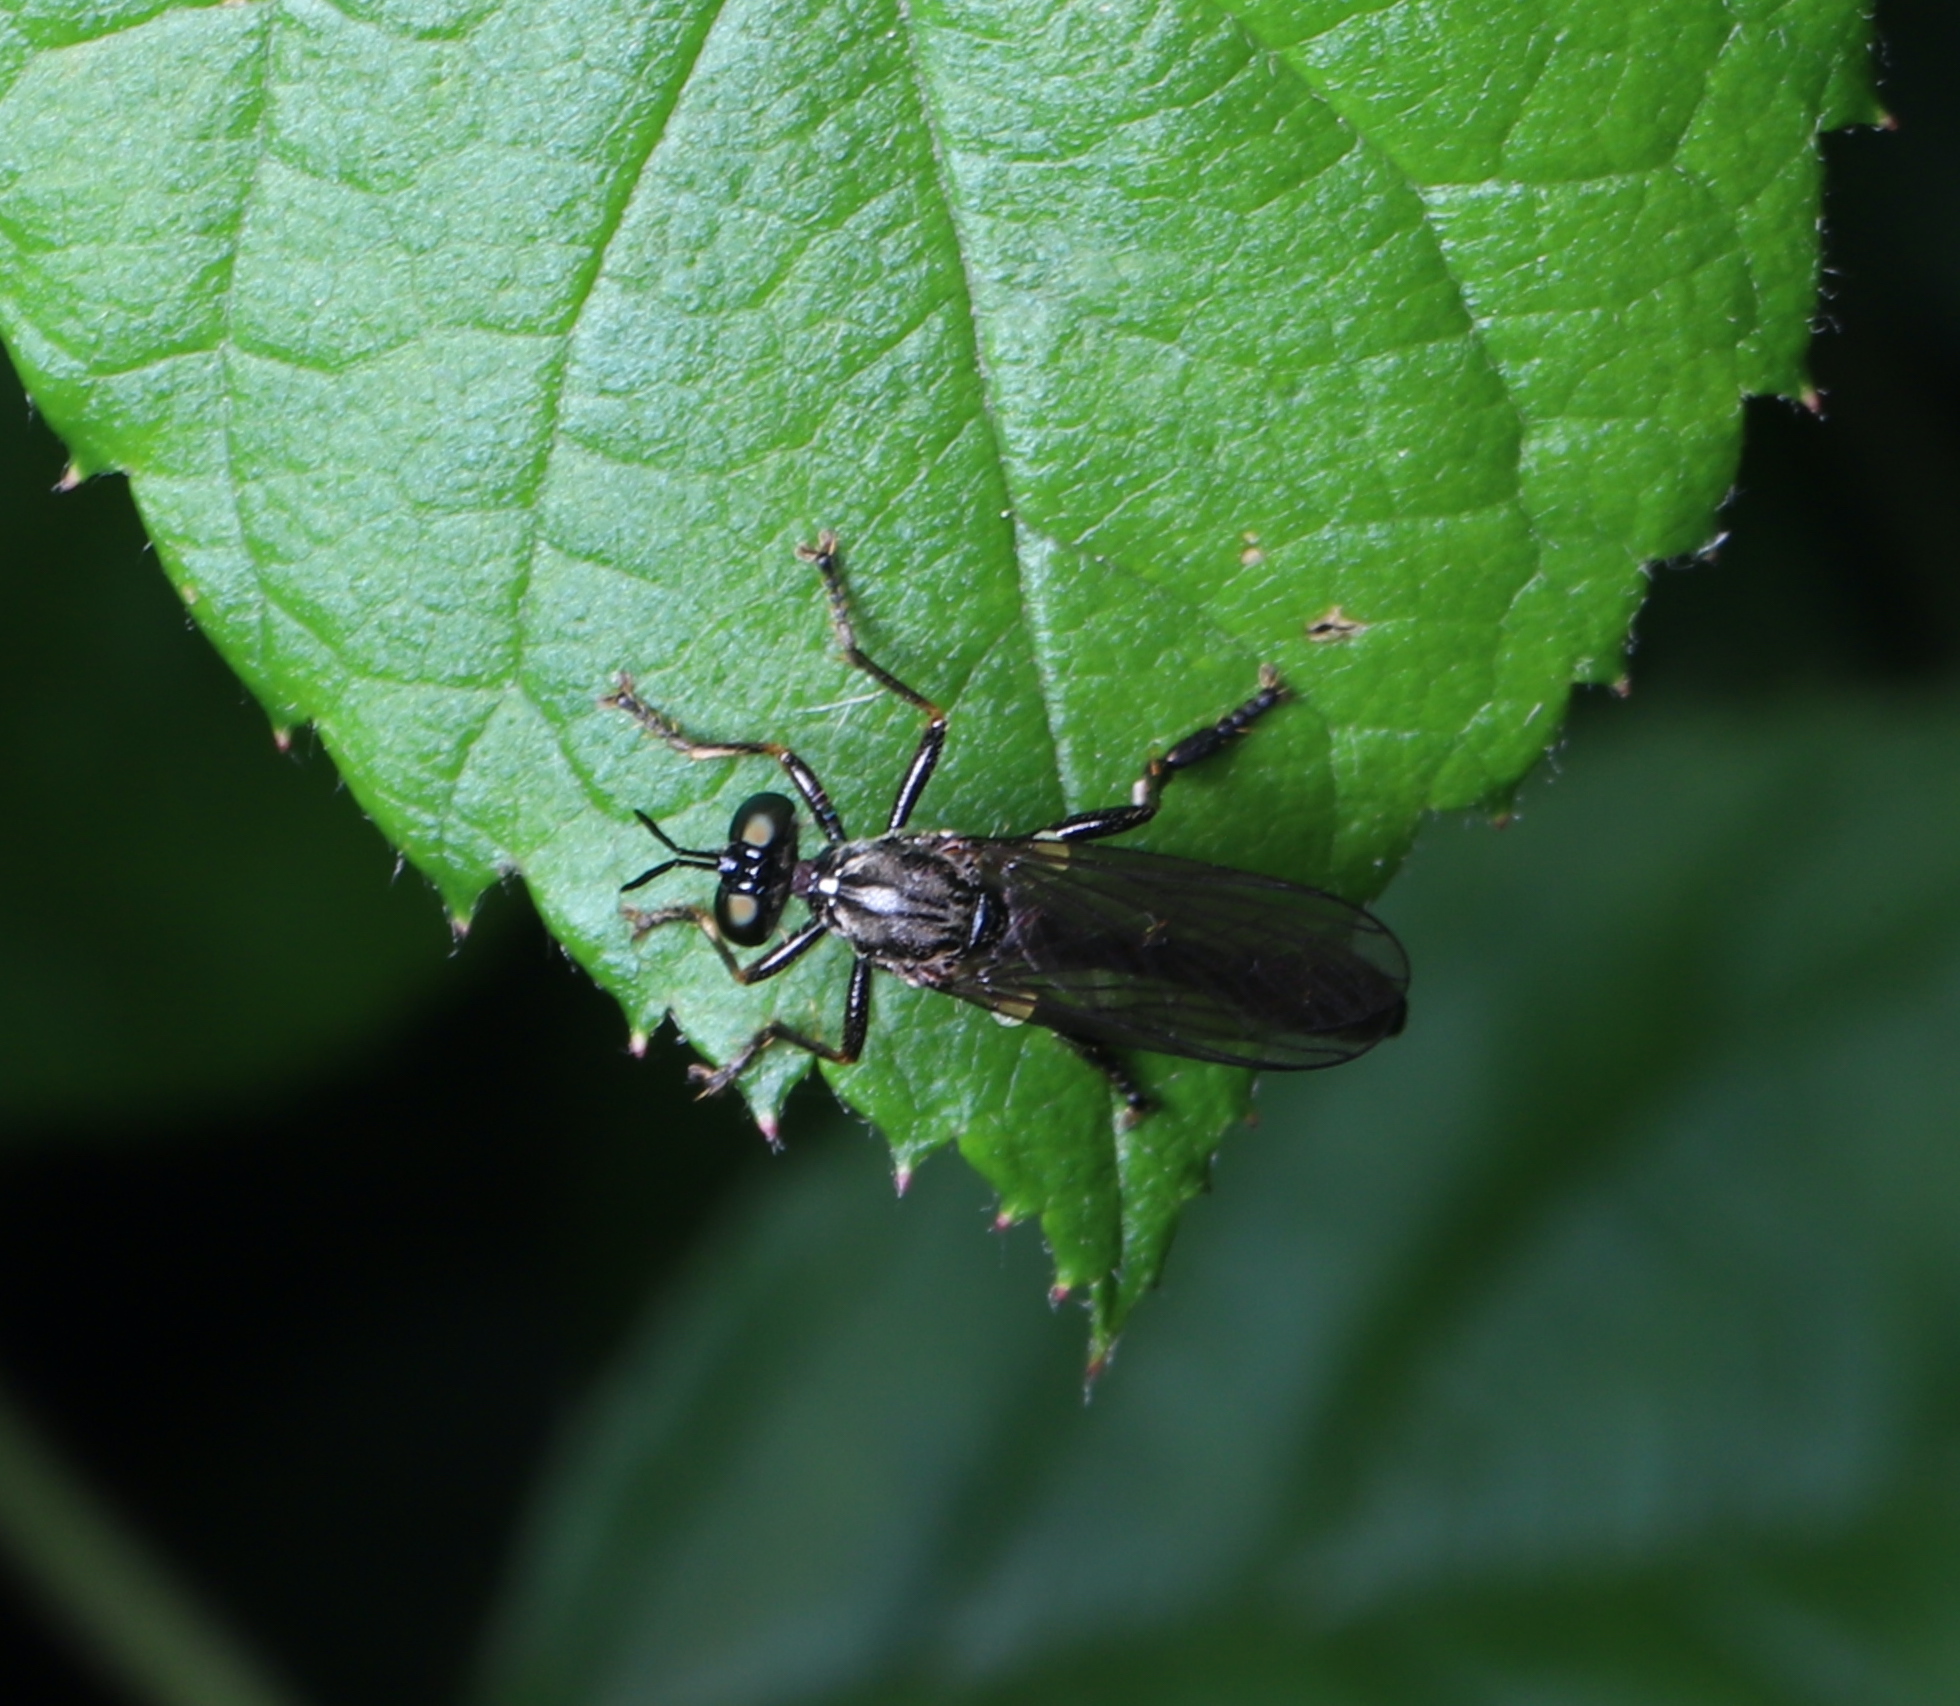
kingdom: Animalia
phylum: Arthropoda
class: Insecta
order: Diptera
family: Asilidae
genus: Dioctria
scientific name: Dioctria hyalipennis
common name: Stripe-legged robberfly
